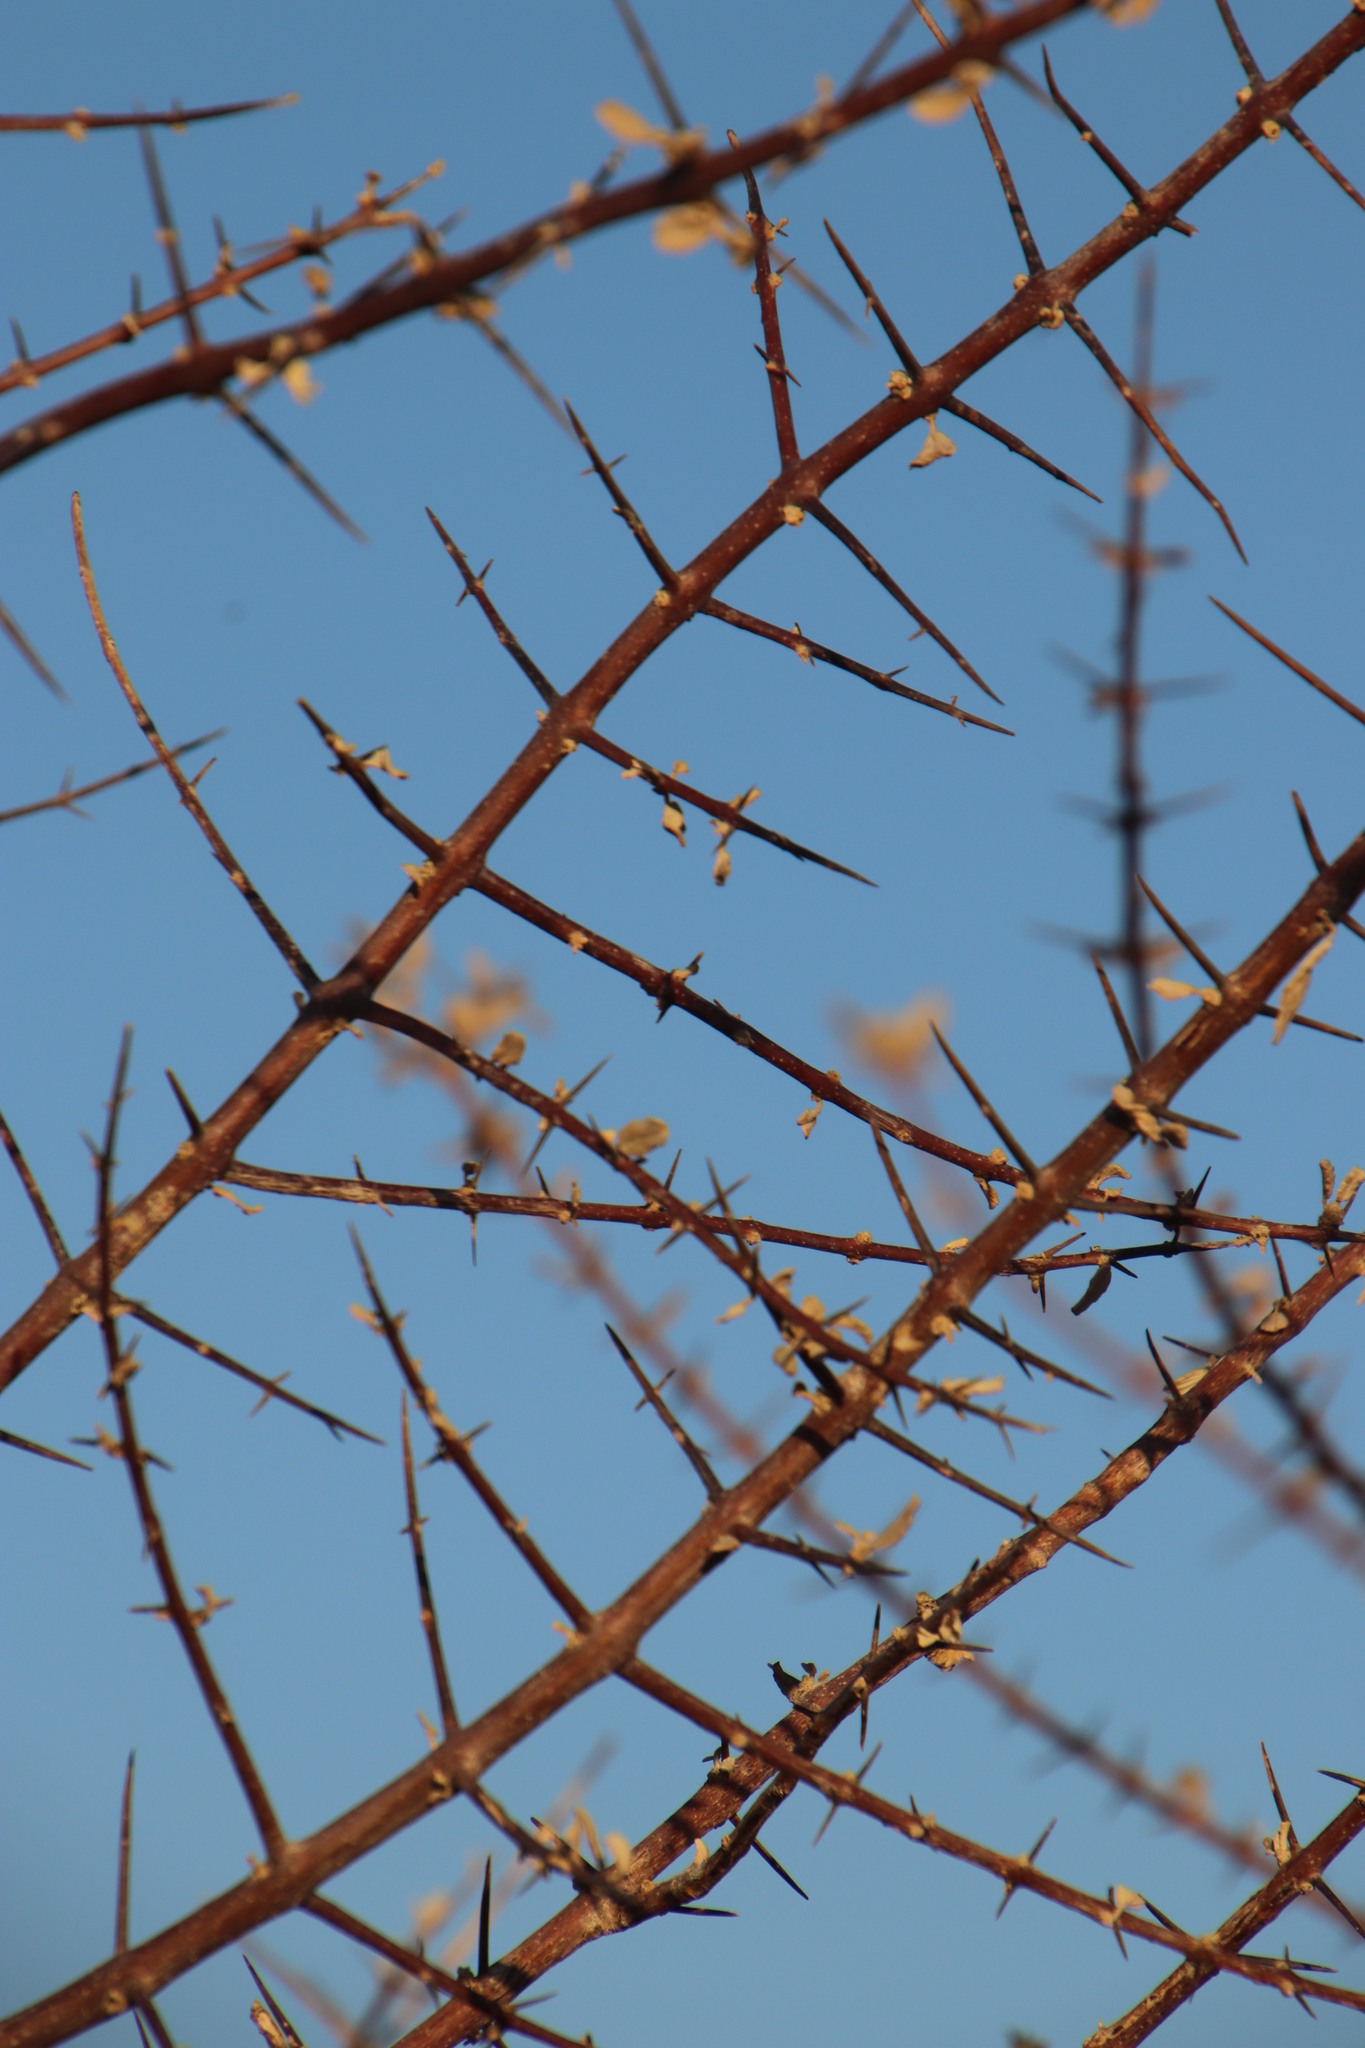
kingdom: Plantae
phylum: Tracheophyta
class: Magnoliopsida
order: Lamiales
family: Bignoniaceae
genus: Catophractes
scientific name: Catophractes alexandri
